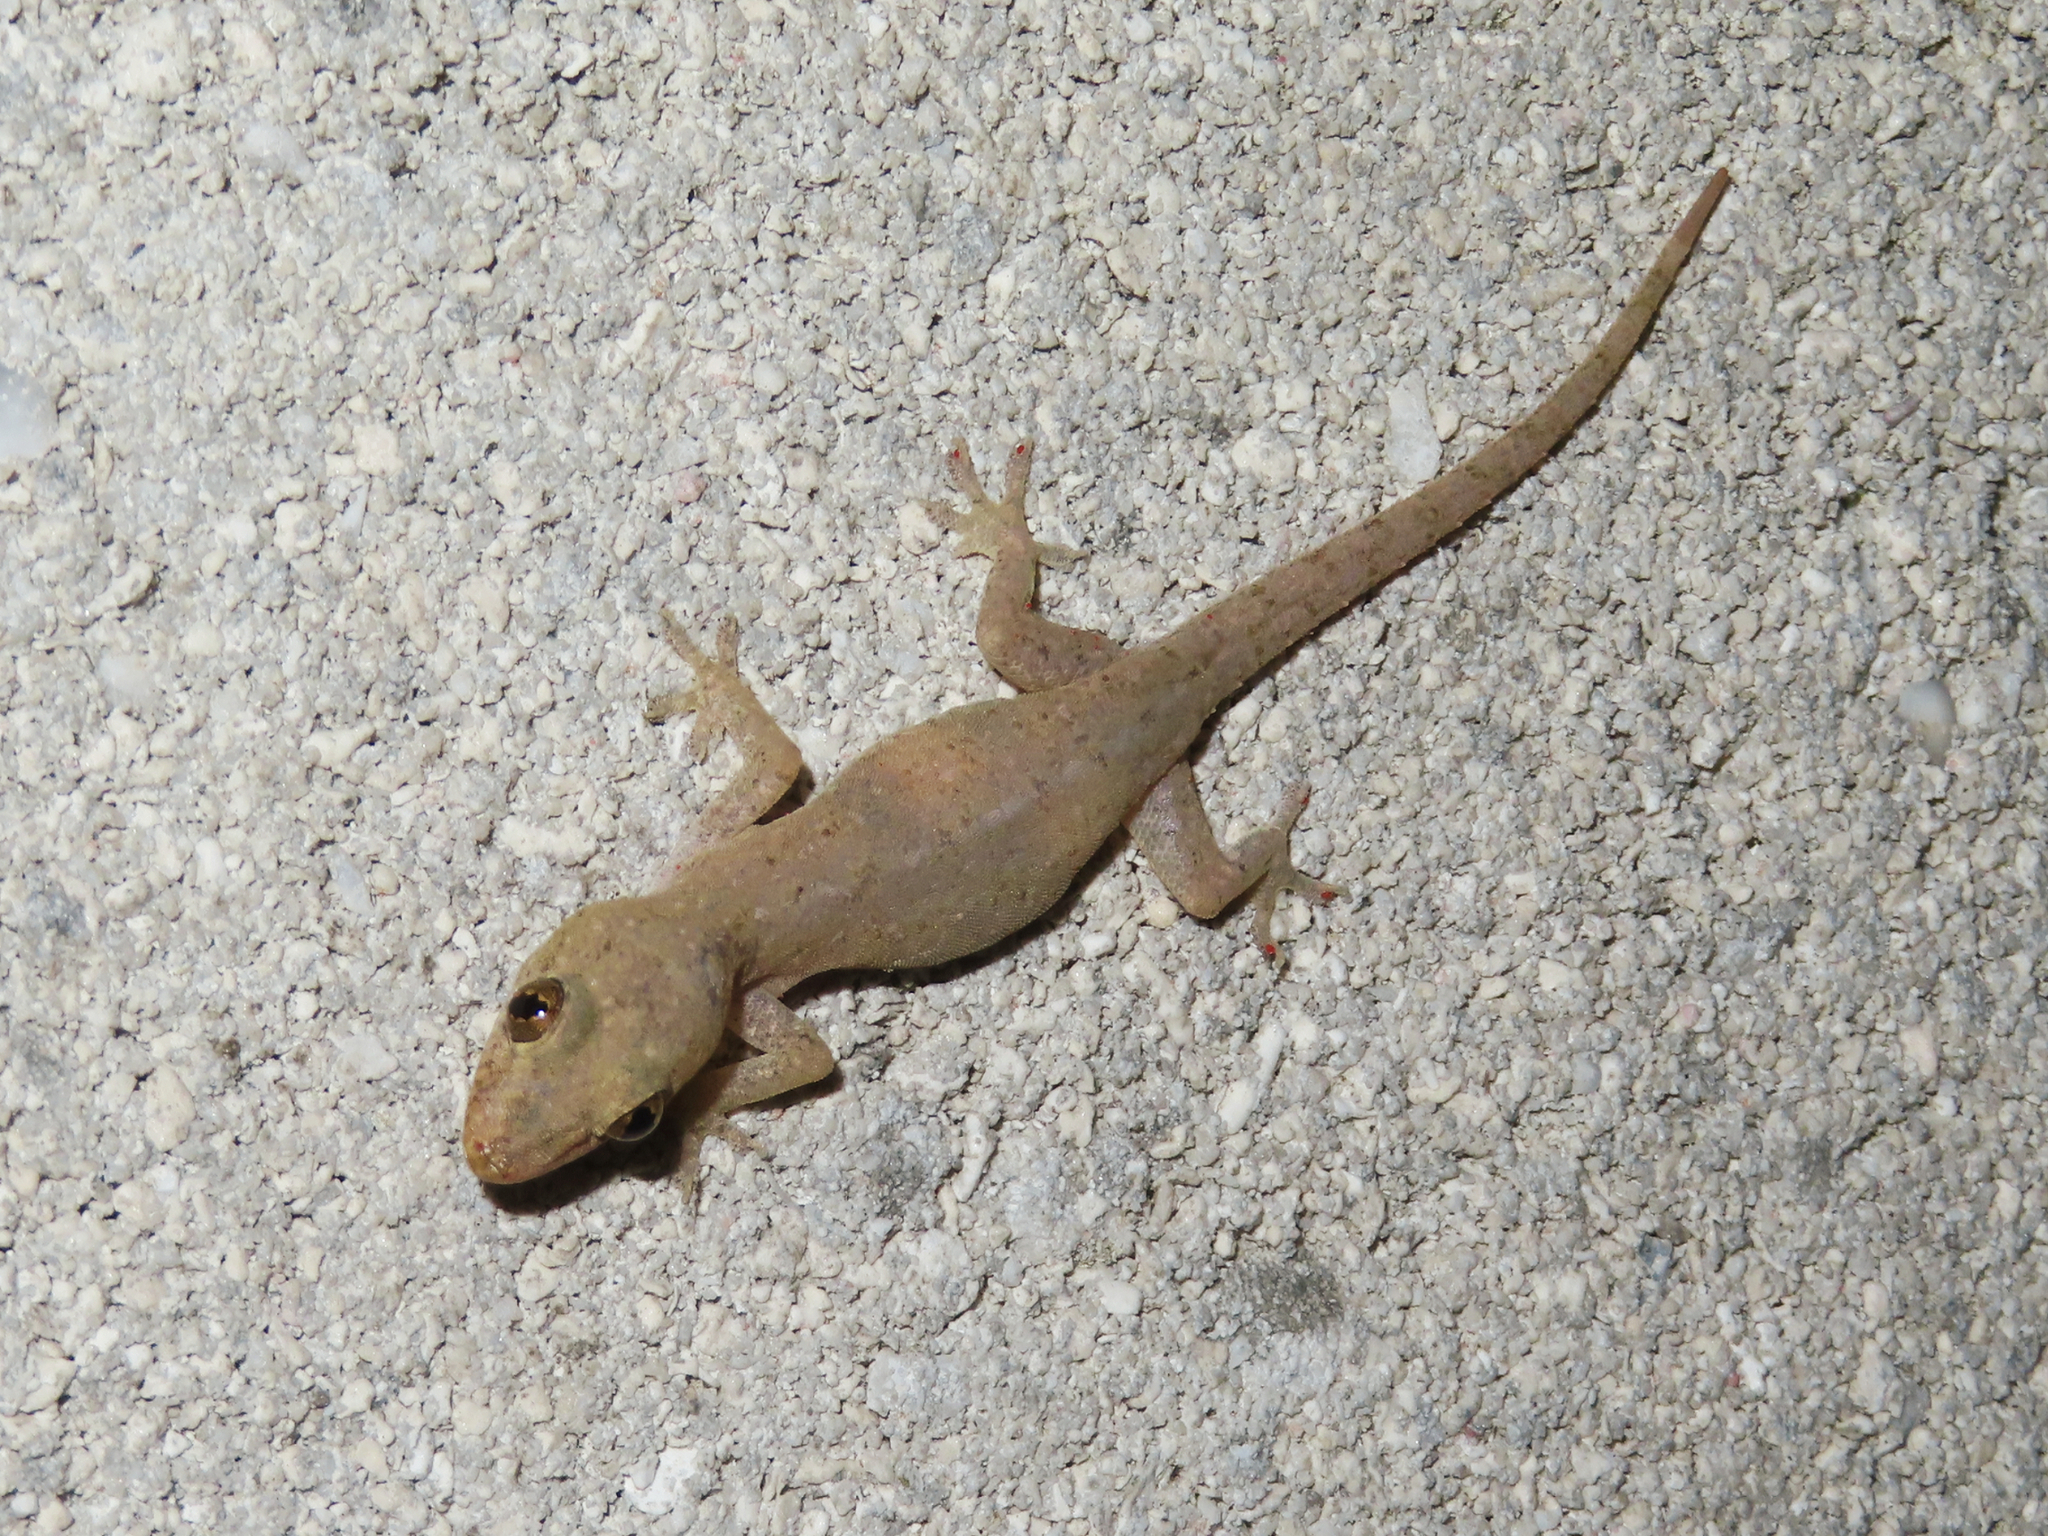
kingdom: Animalia
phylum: Chordata
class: Squamata
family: Gekkonidae
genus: Hemidactylus
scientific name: Hemidactylus frenatus
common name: Common house gecko
